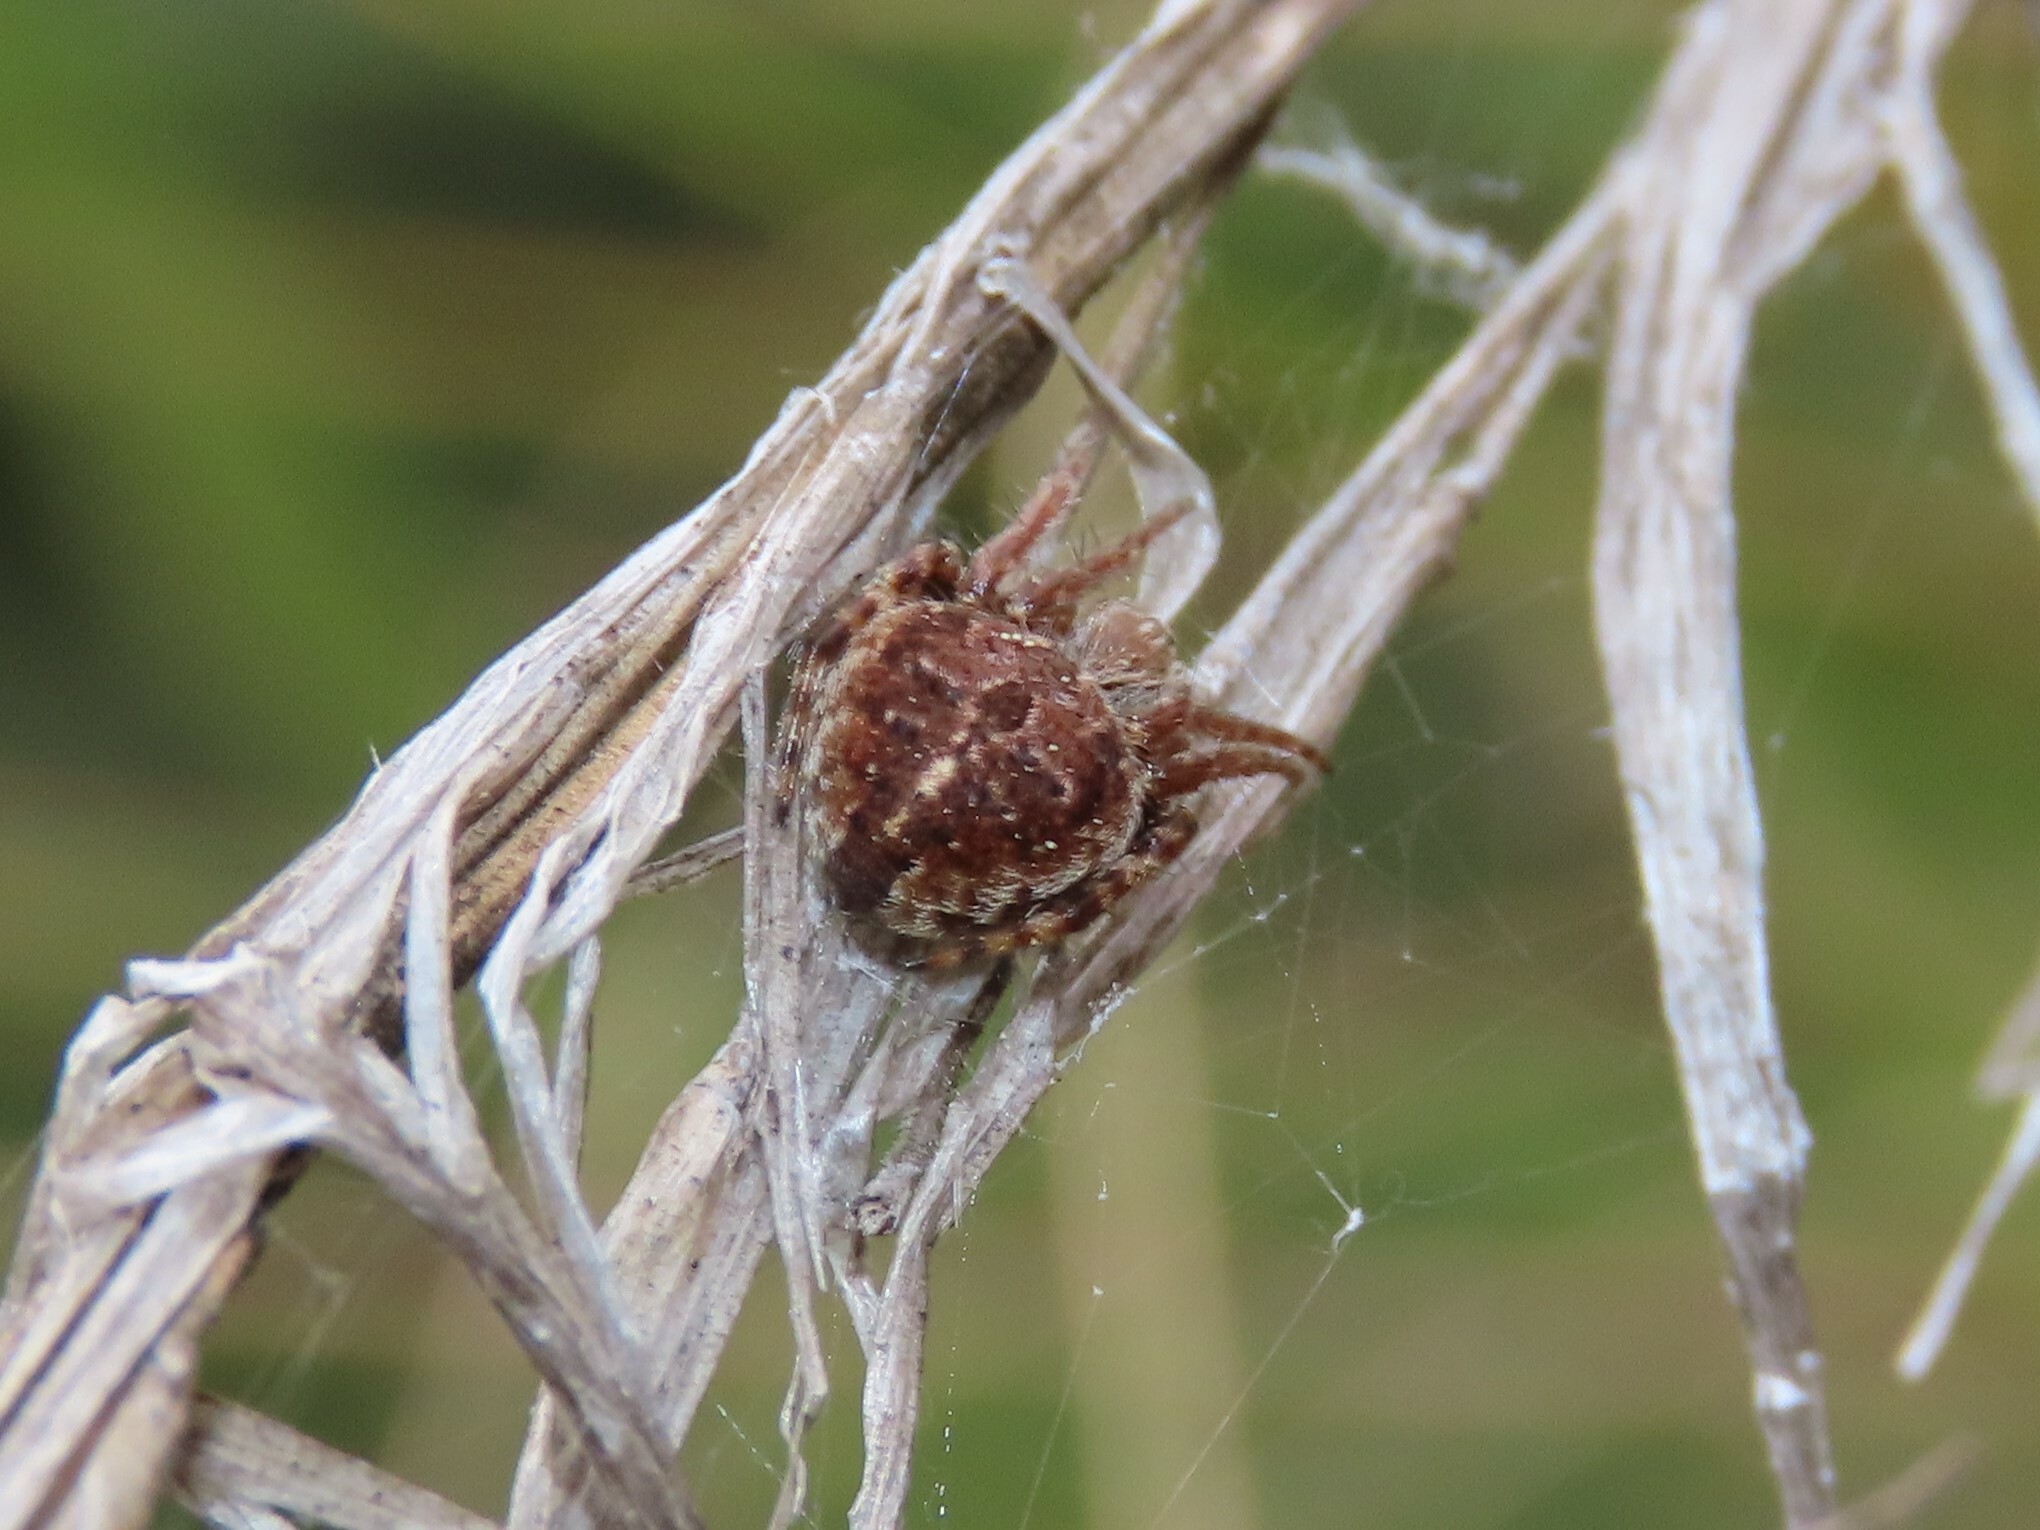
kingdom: Animalia
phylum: Arthropoda
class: Arachnida
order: Araneae
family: Araneidae
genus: Agalenatea
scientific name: Agalenatea redii
